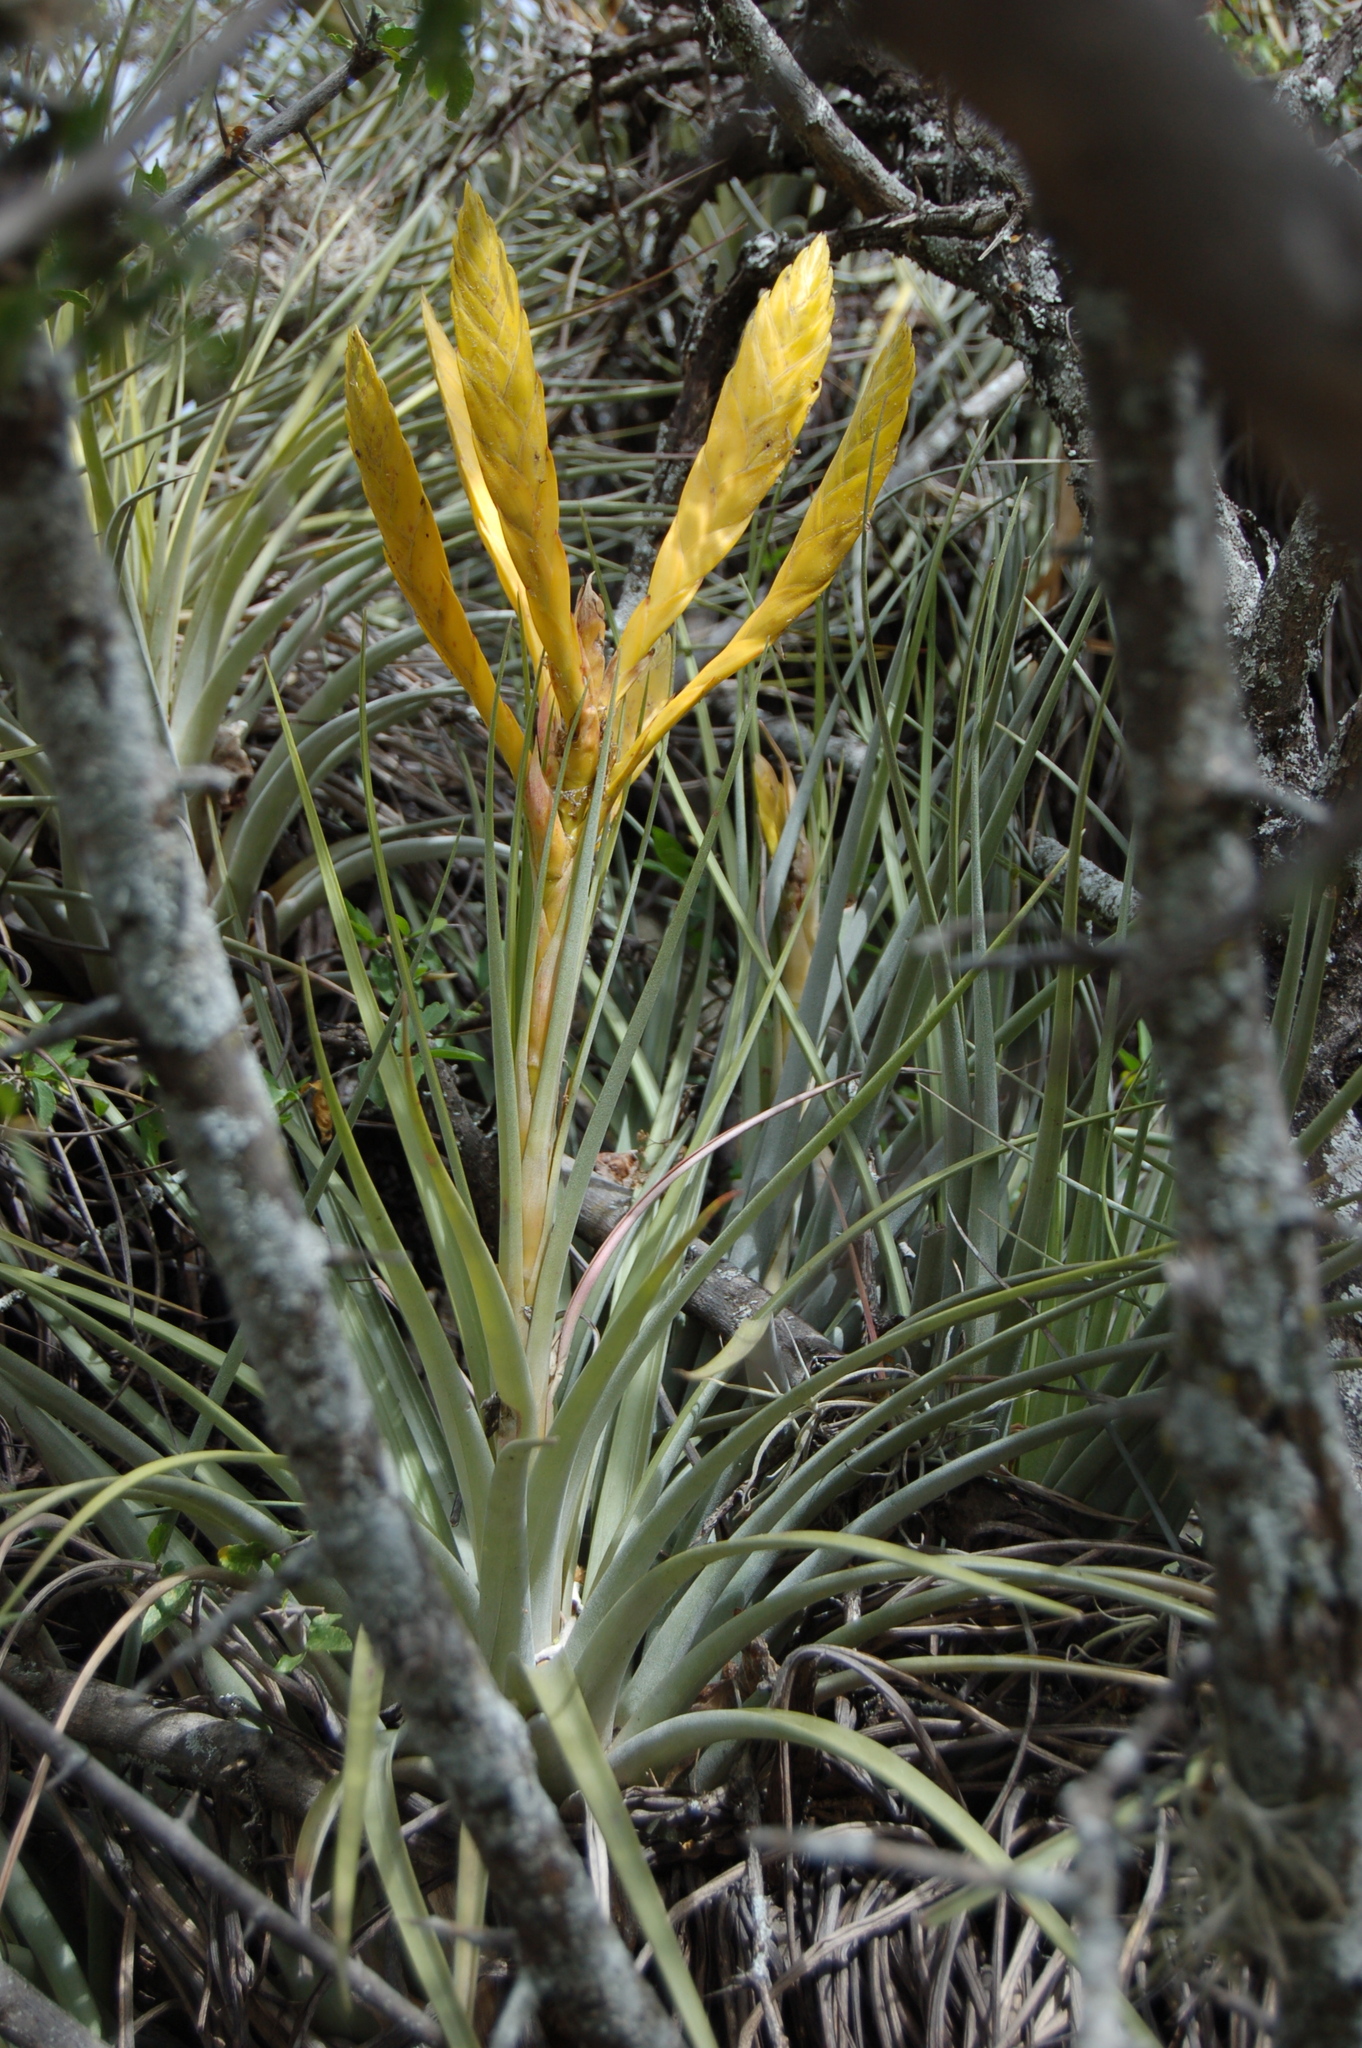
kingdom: Plantae
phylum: Tracheophyta
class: Liliopsida
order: Poales
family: Bromeliaceae
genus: Tillandsia
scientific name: Tillandsia flavobracteata
